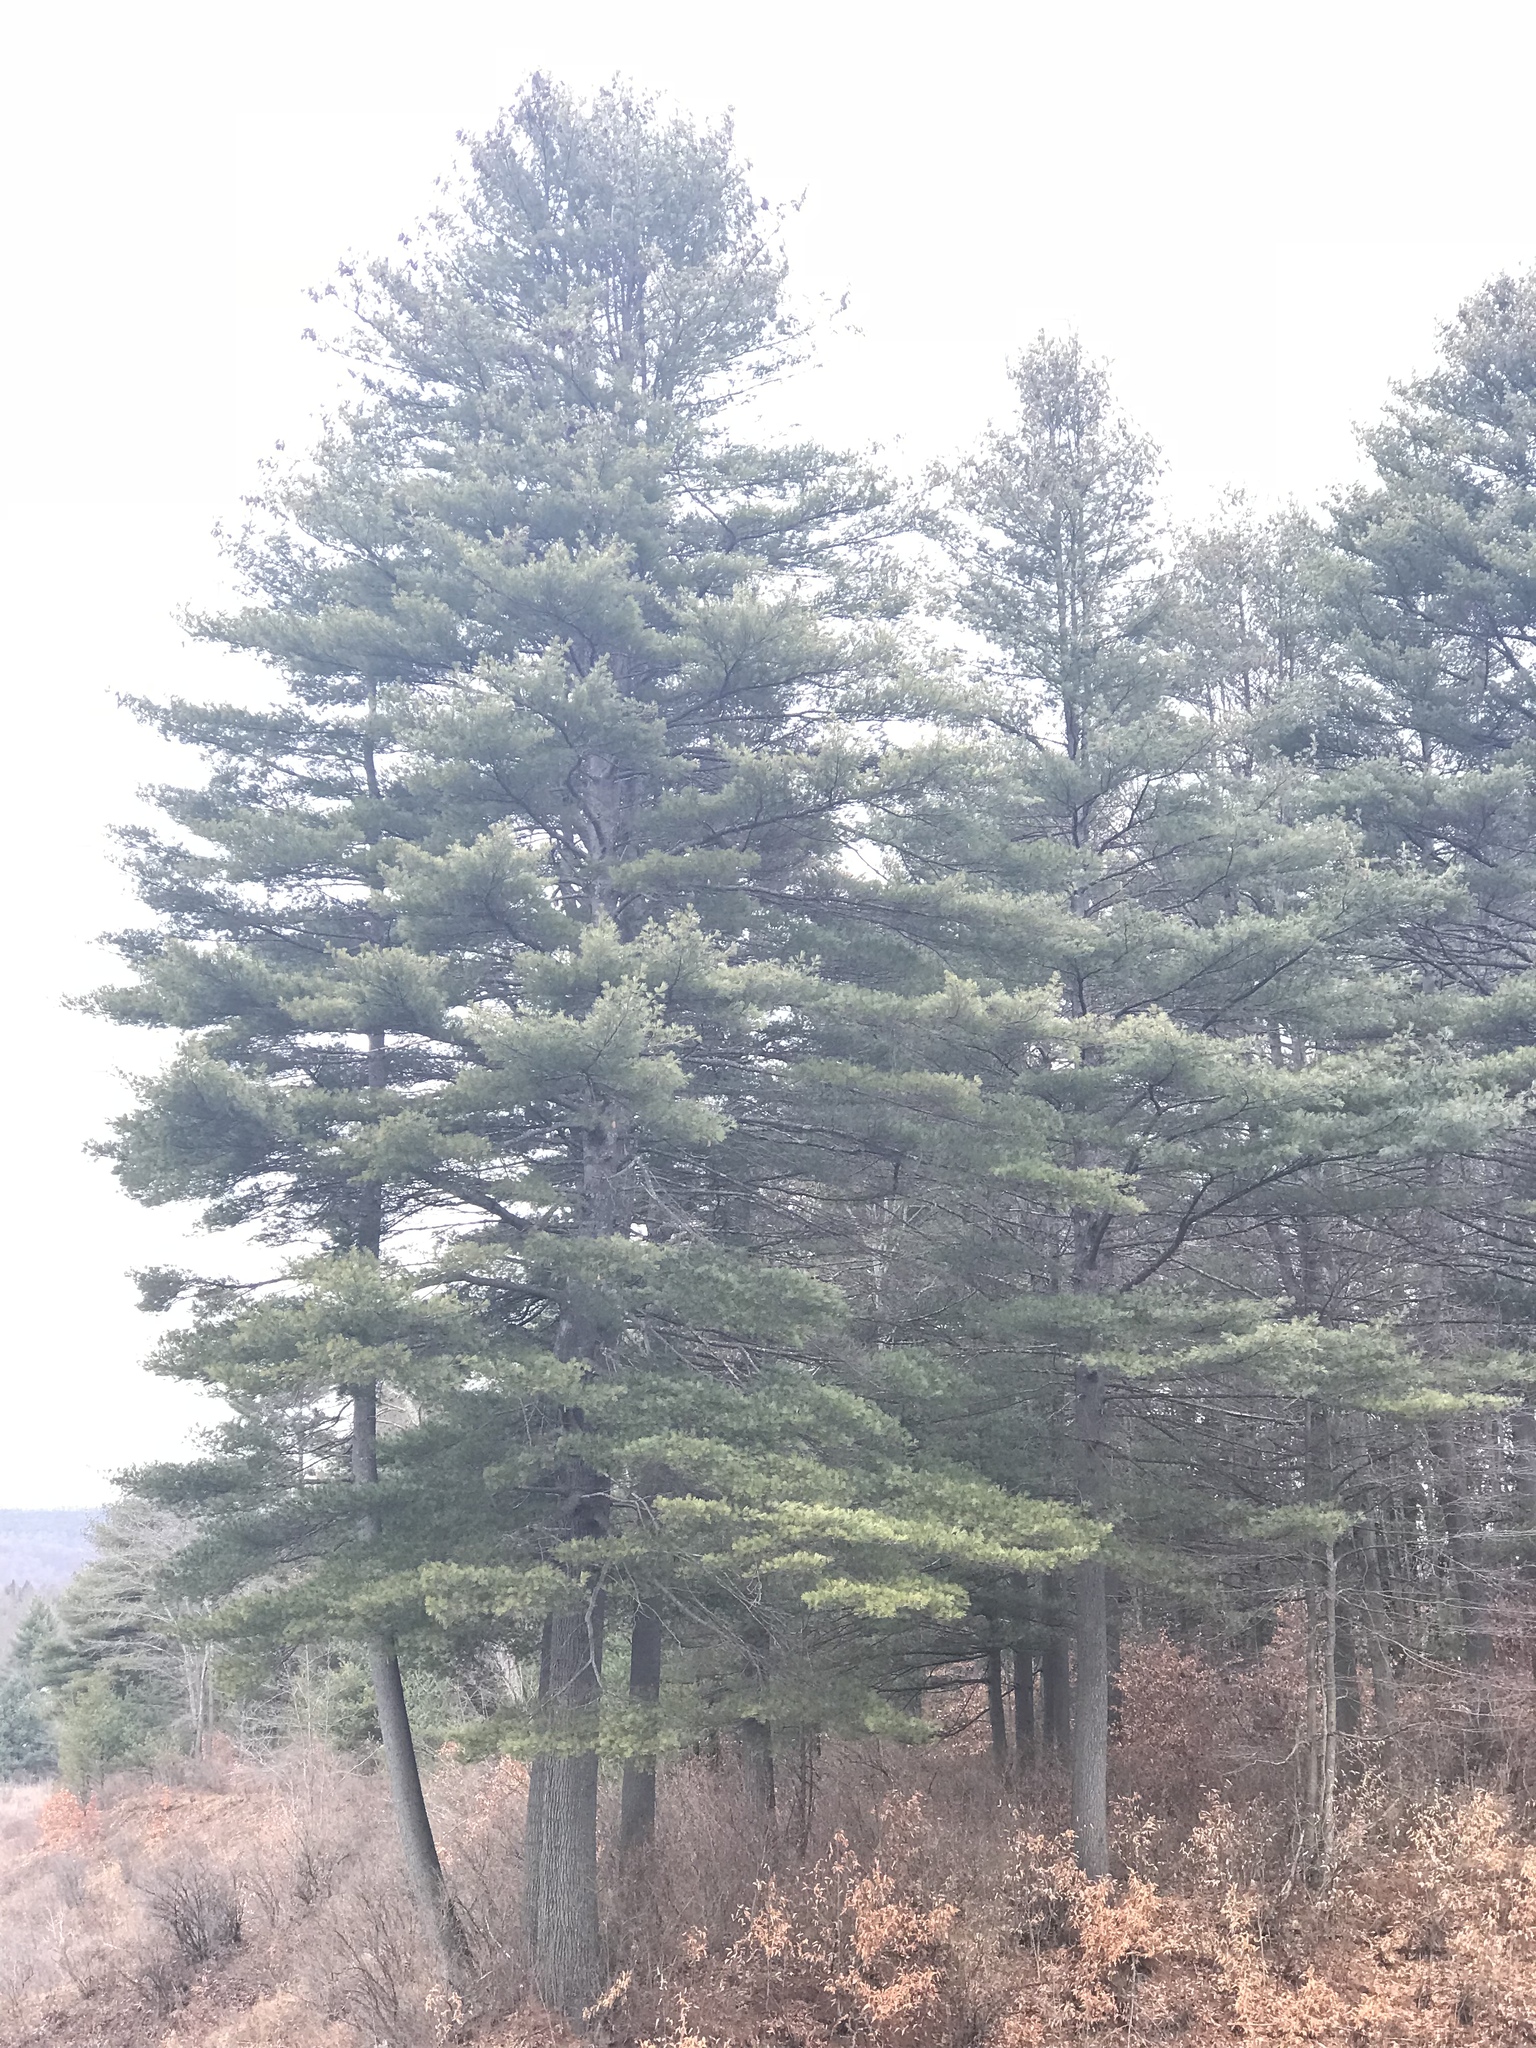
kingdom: Plantae
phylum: Tracheophyta
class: Pinopsida
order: Pinales
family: Pinaceae
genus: Pinus
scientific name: Pinus strobus
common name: Weymouth pine
